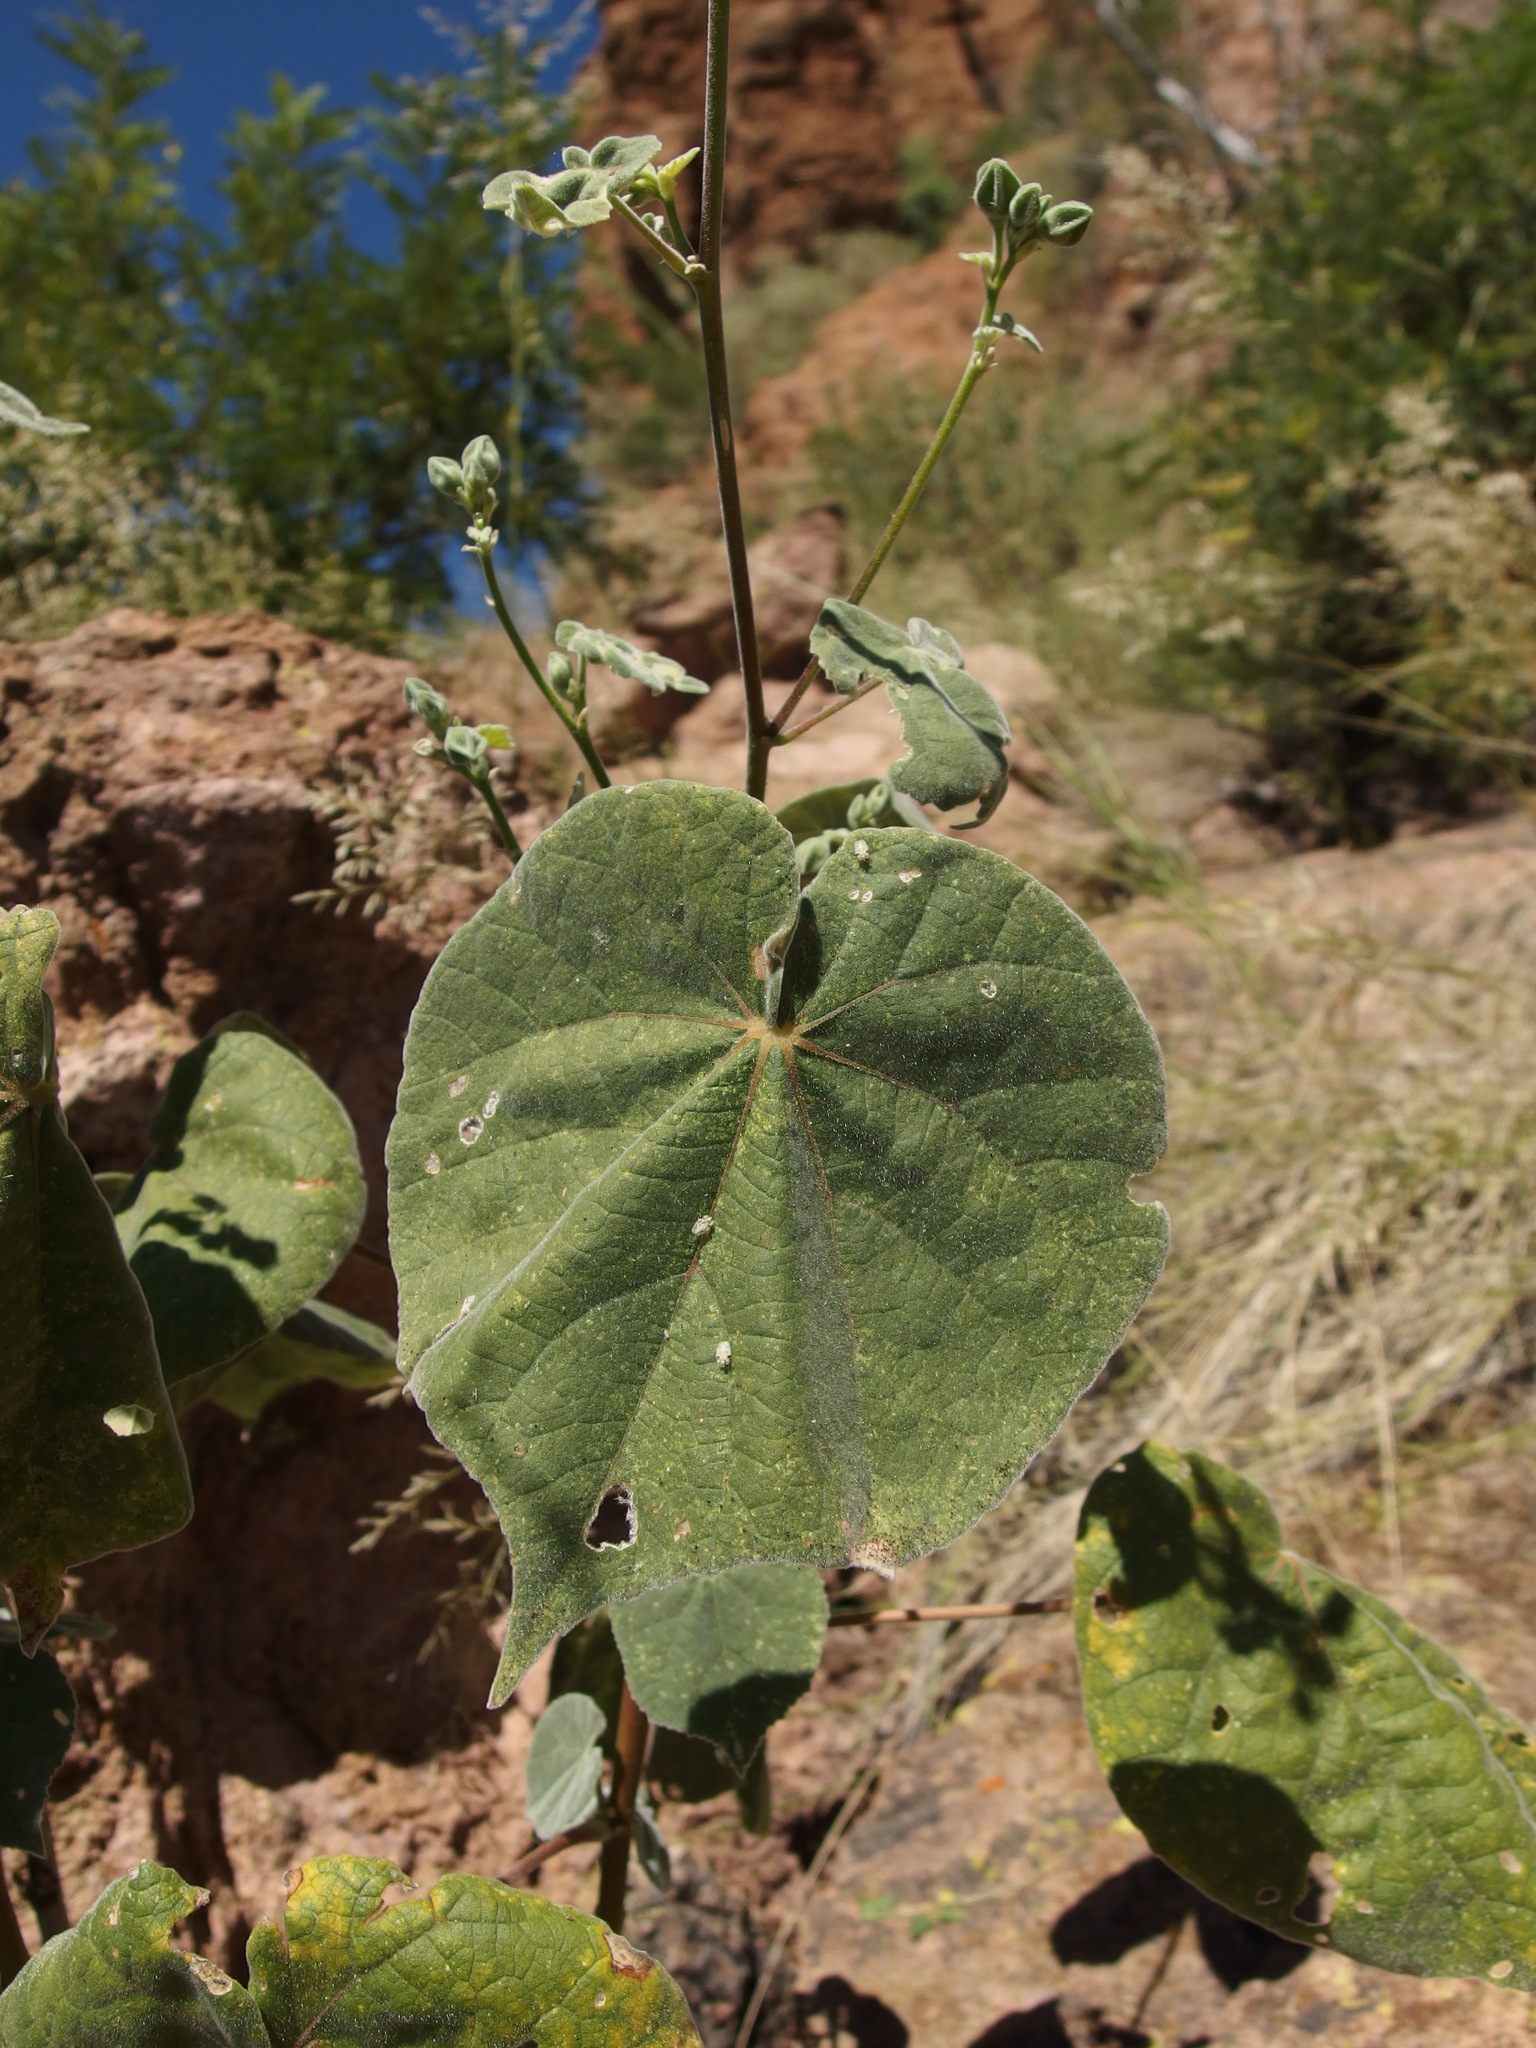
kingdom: Plantae
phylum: Tracheophyta
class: Magnoliopsida
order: Malvales
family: Malvaceae
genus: Abutilon
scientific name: Abutilon reventum
